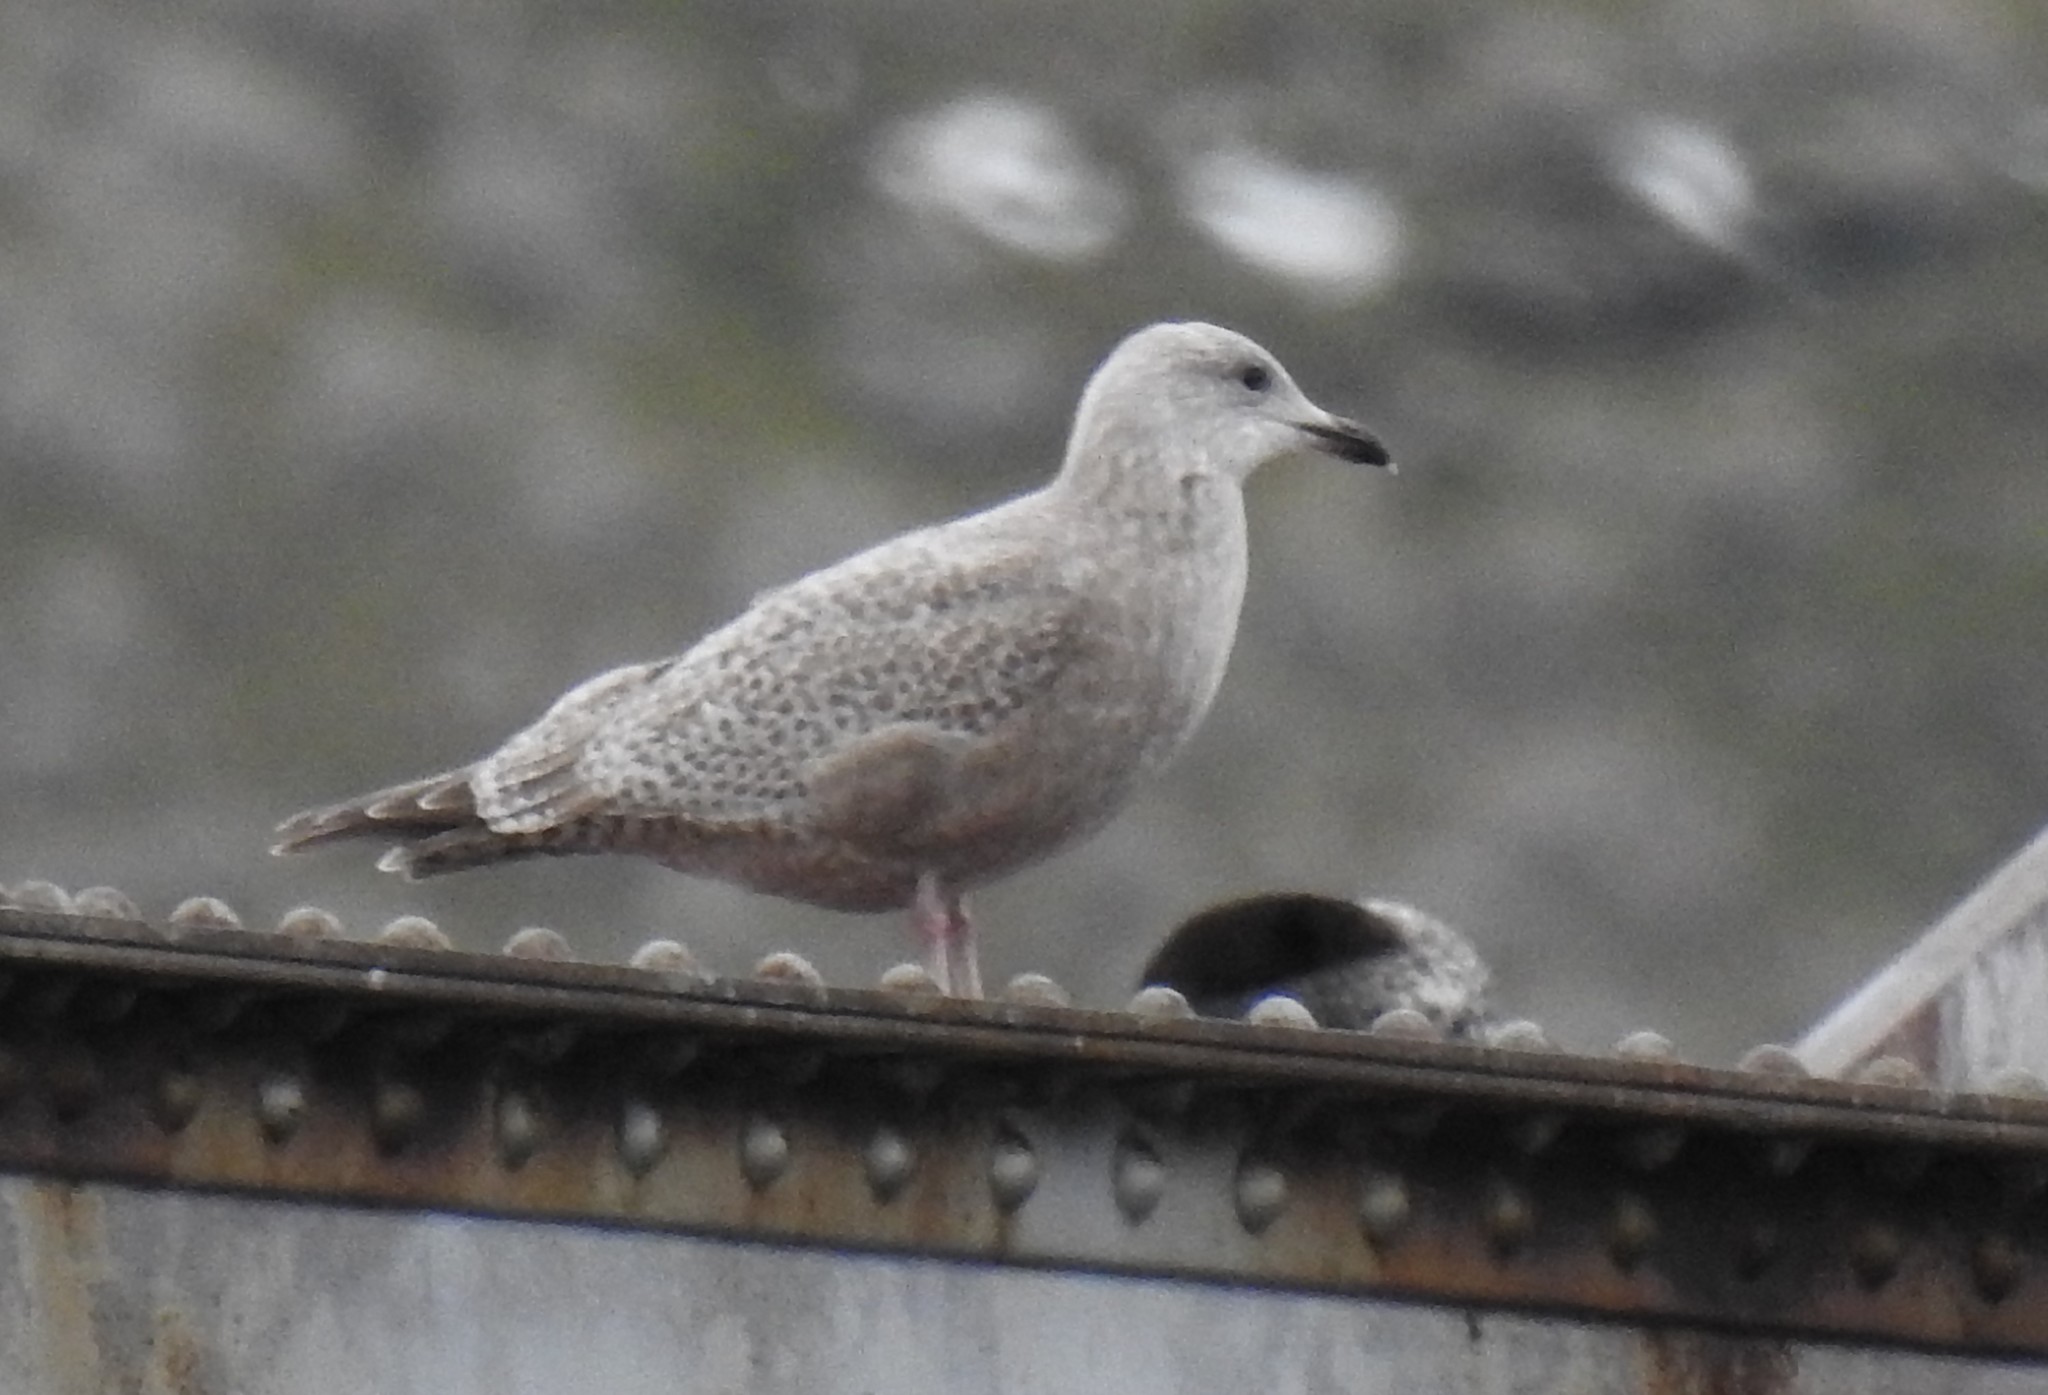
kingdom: Animalia
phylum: Chordata
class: Aves
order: Charadriiformes
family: Laridae
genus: Larus
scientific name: Larus glaucoides
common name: Iceland gull
